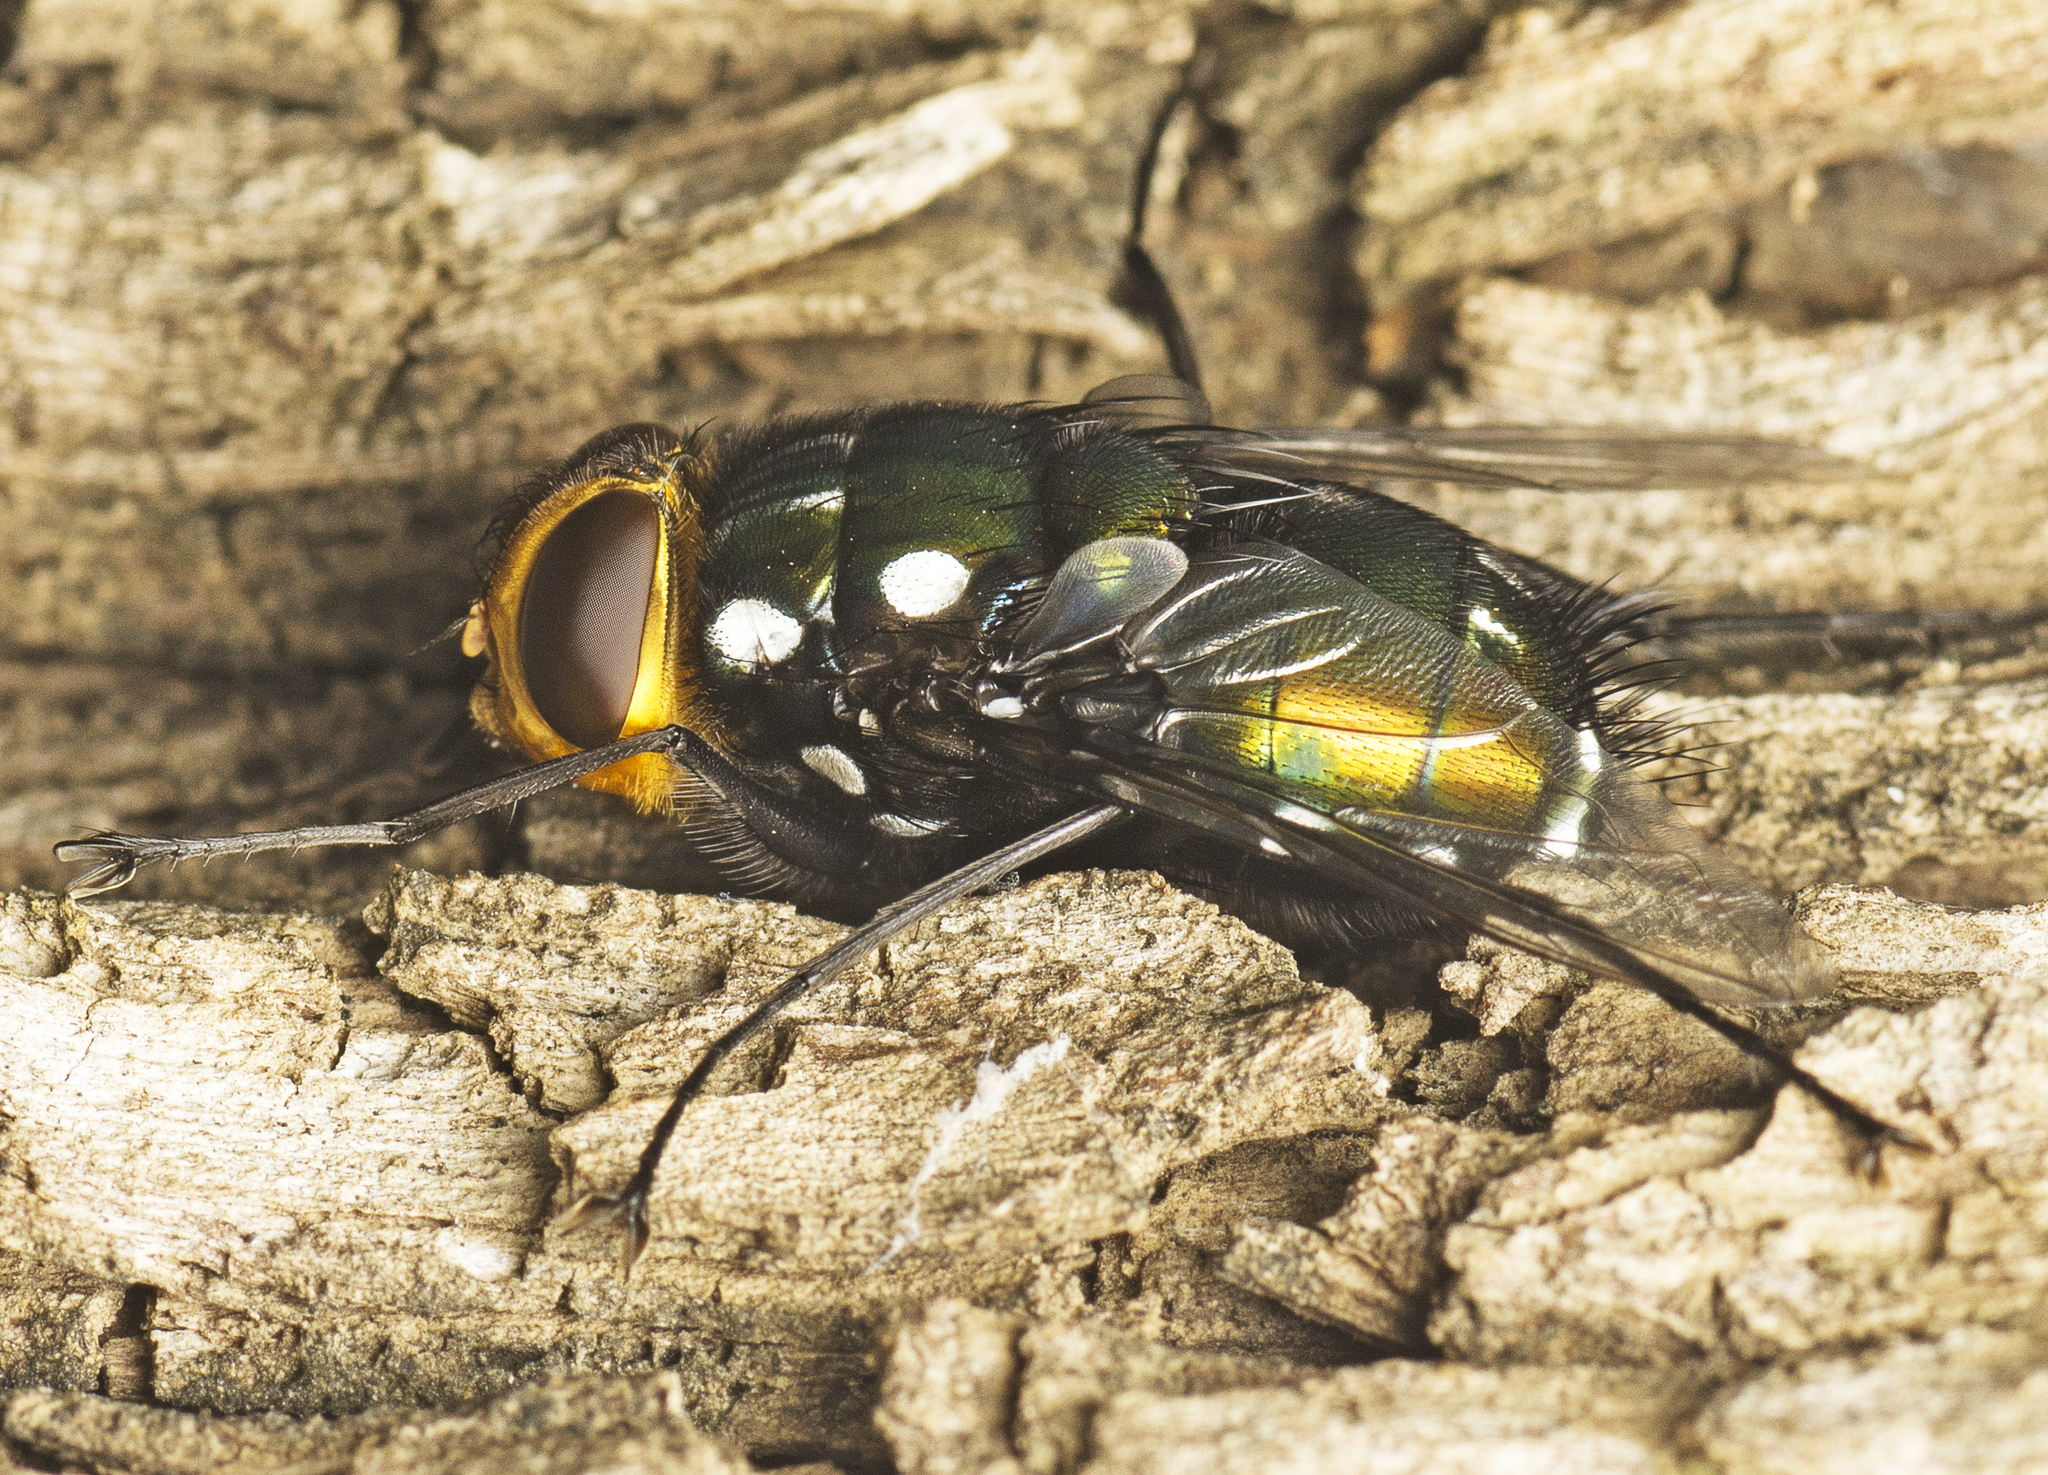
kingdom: Animalia
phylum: Arthropoda
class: Insecta
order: Diptera
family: Tachinidae
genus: Rutilia
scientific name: Rutilia argentifera
